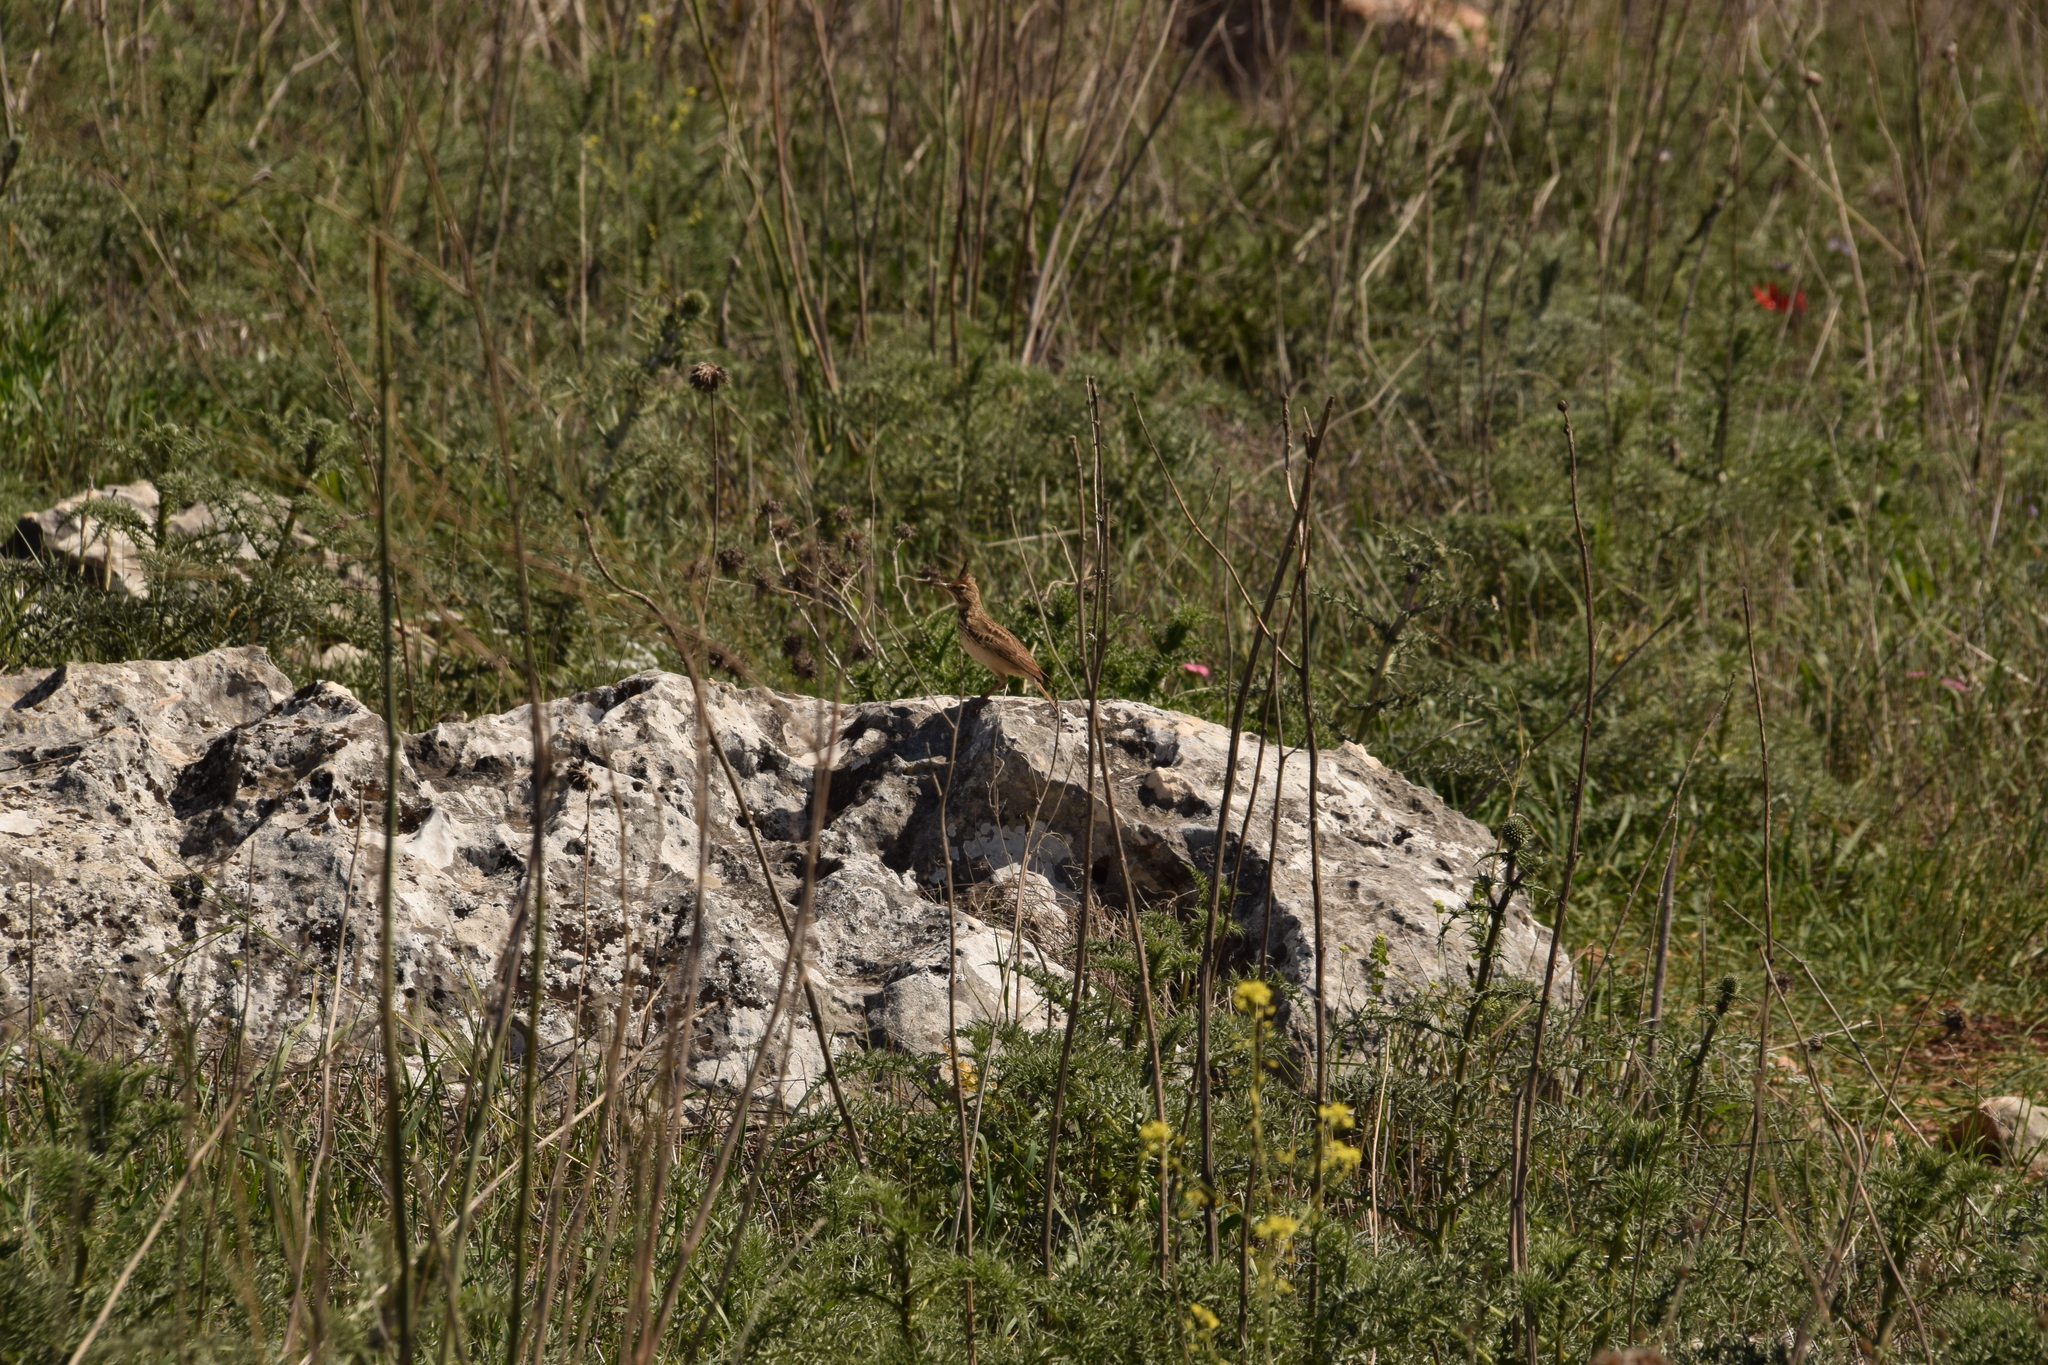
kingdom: Animalia
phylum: Chordata
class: Aves
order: Passeriformes
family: Alaudidae
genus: Galerida
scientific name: Galerida cristata
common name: Crested lark
